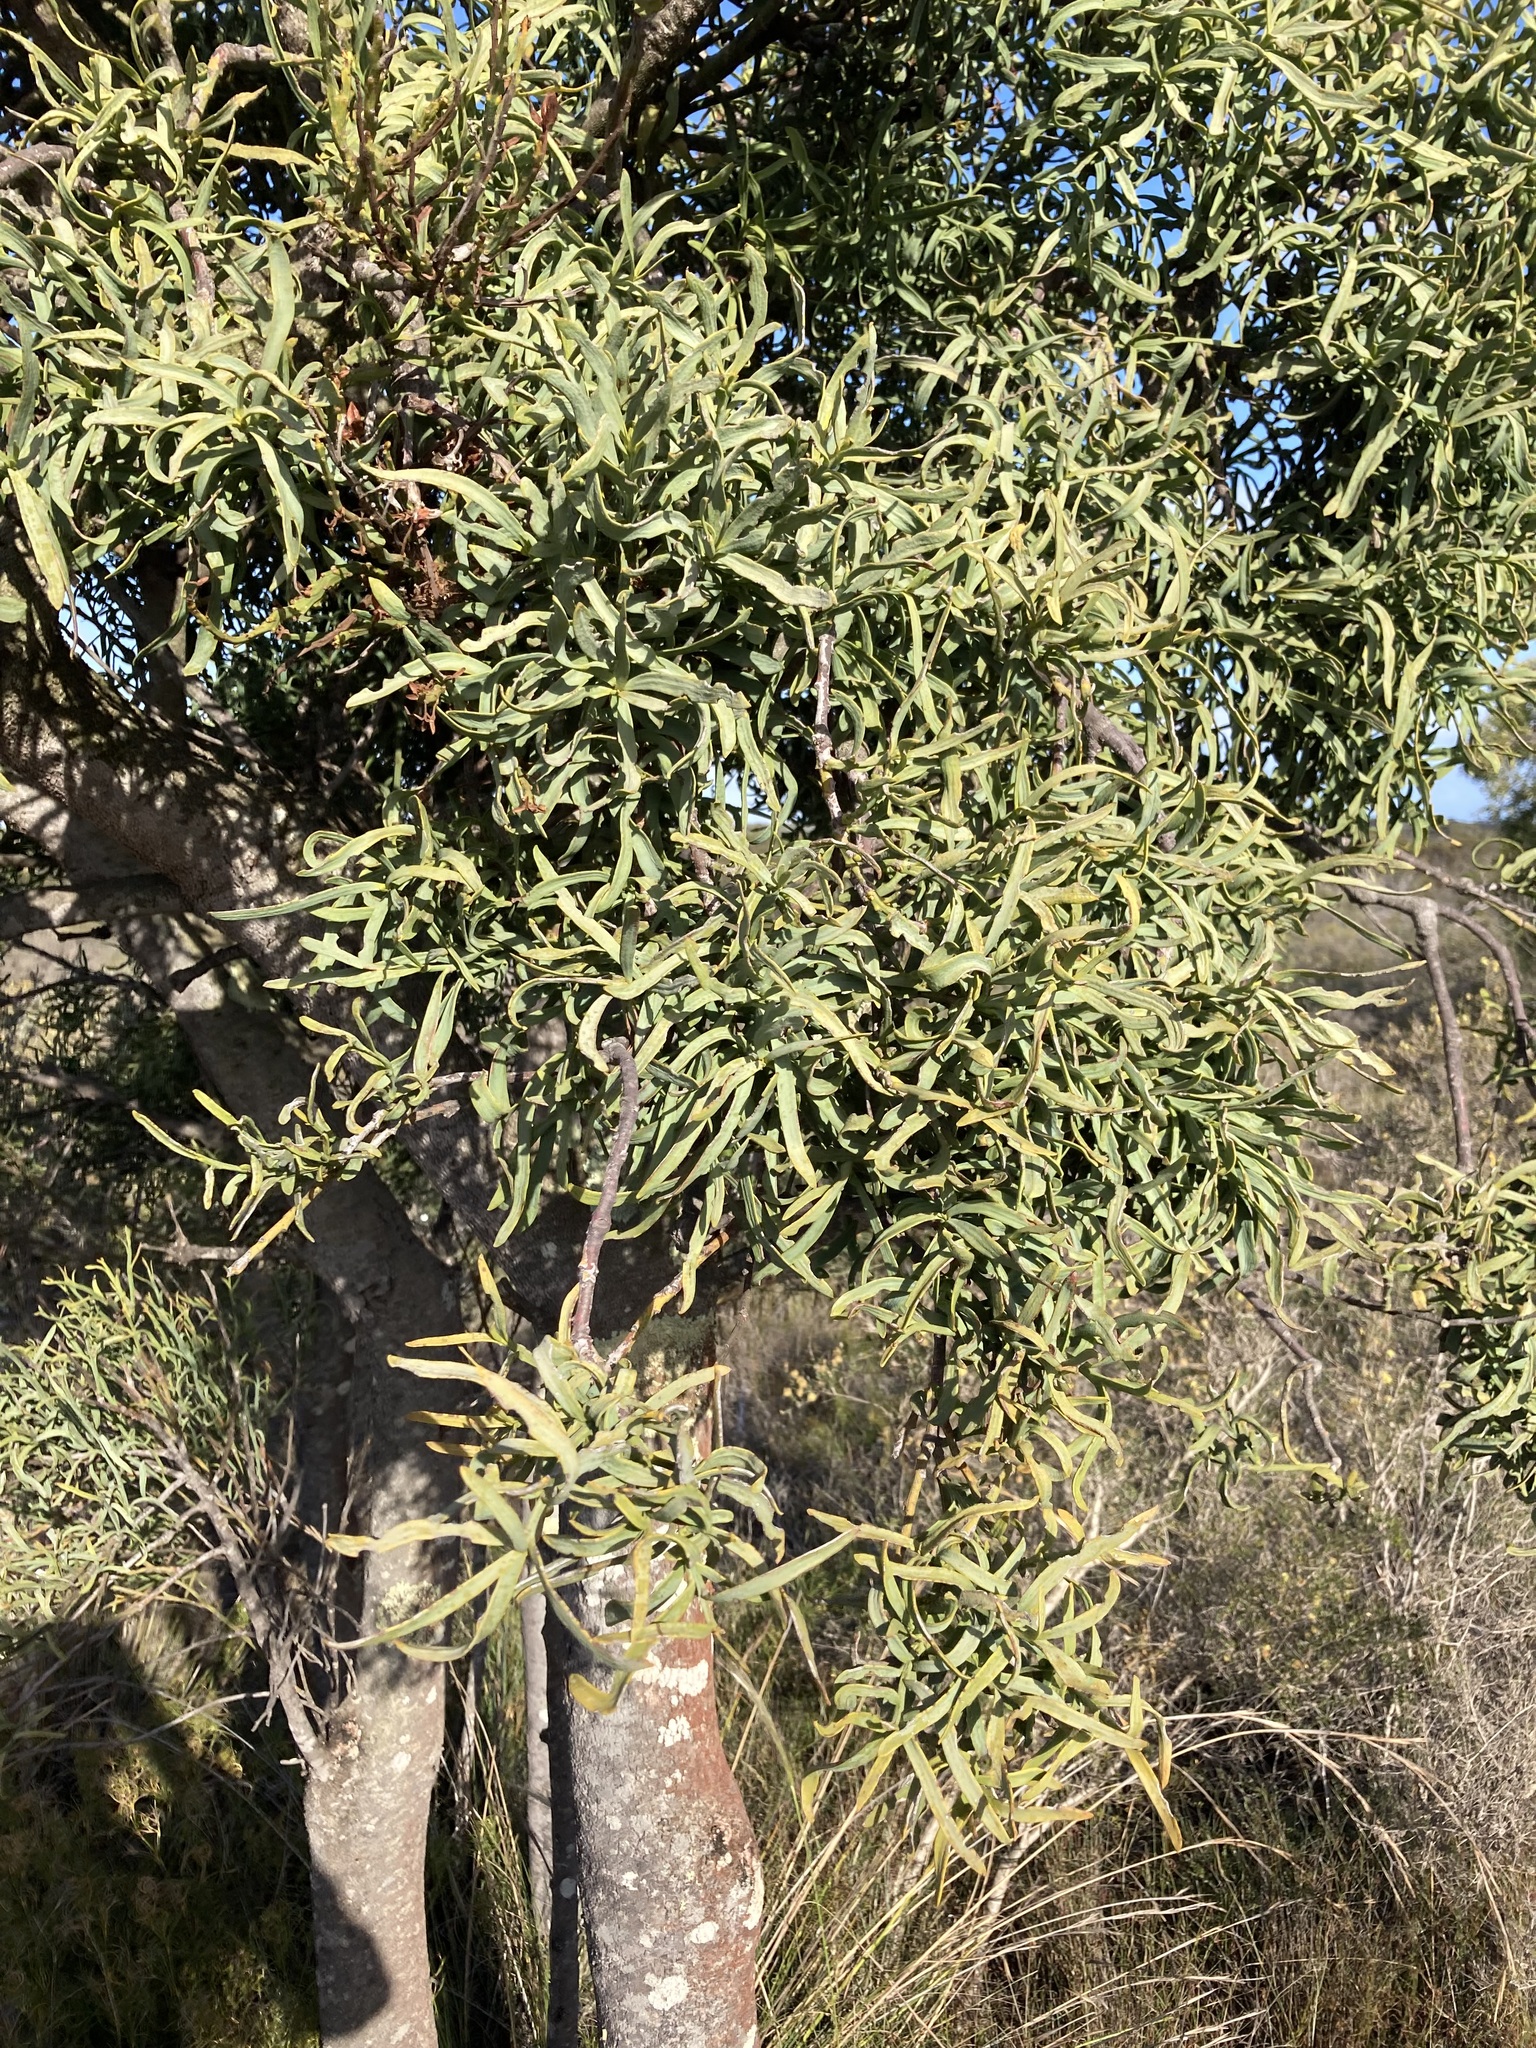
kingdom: Plantae
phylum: Tracheophyta
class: Magnoliopsida
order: Santalales
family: Loranthaceae
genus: Nuytsia
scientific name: Nuytsia floribunda
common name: Western australian christmastree
